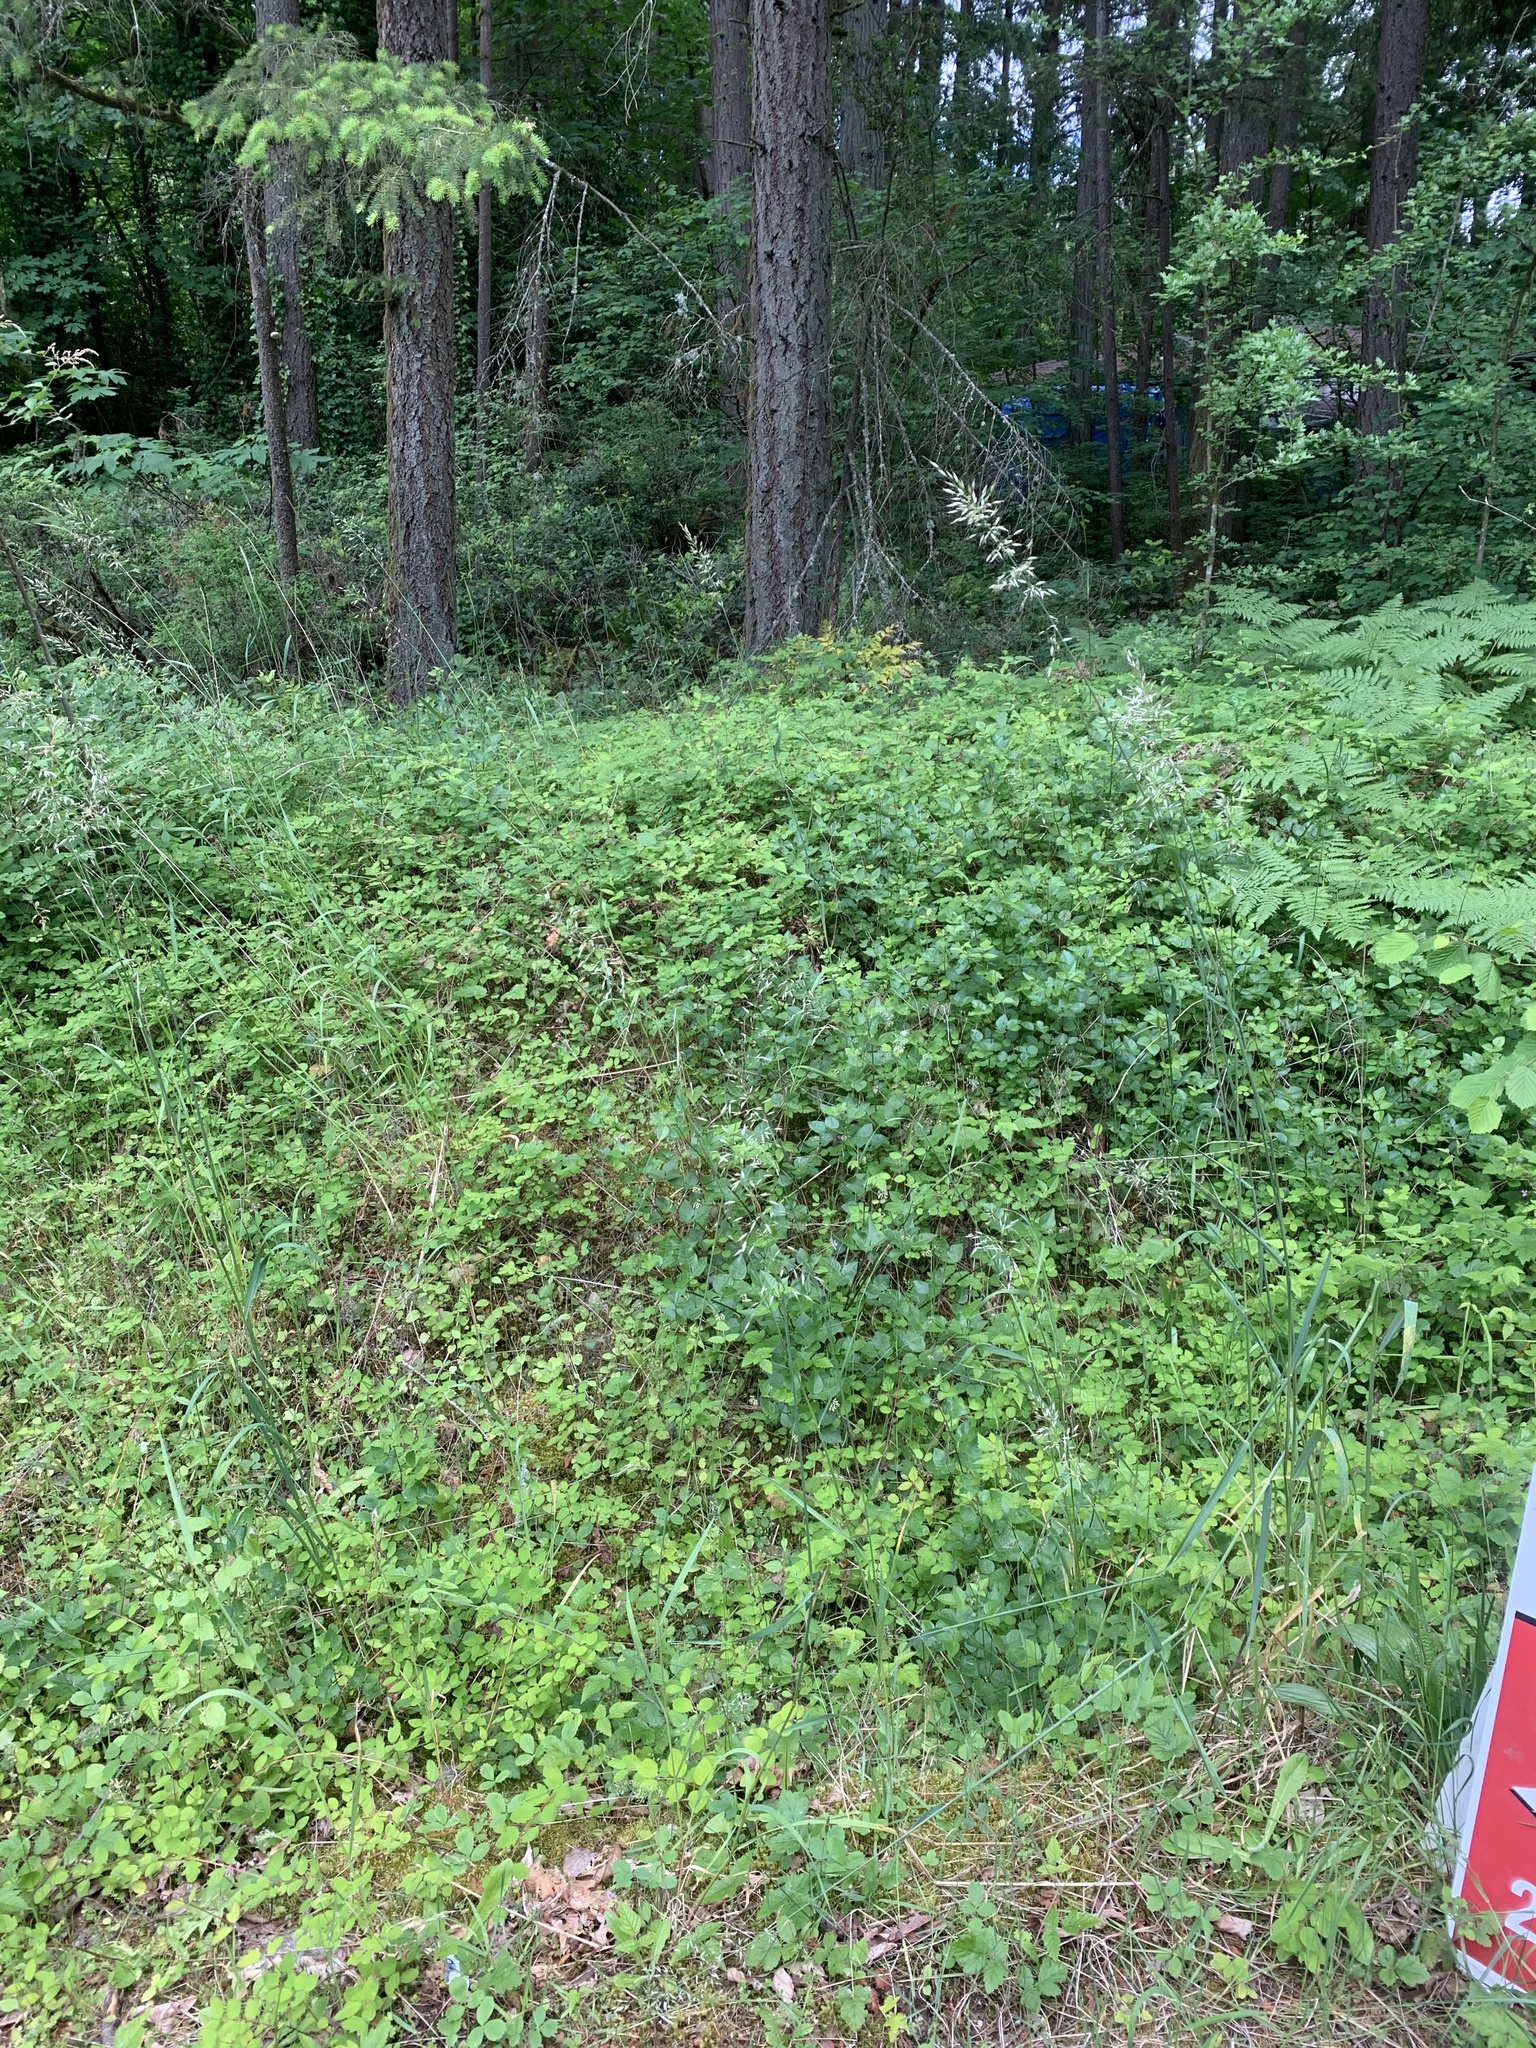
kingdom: Plantae
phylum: Tracheophyta
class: Magnoliopsida
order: Fabales
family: Fabaceae
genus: Rupertia
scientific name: Rupertia physodes
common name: California-tea
